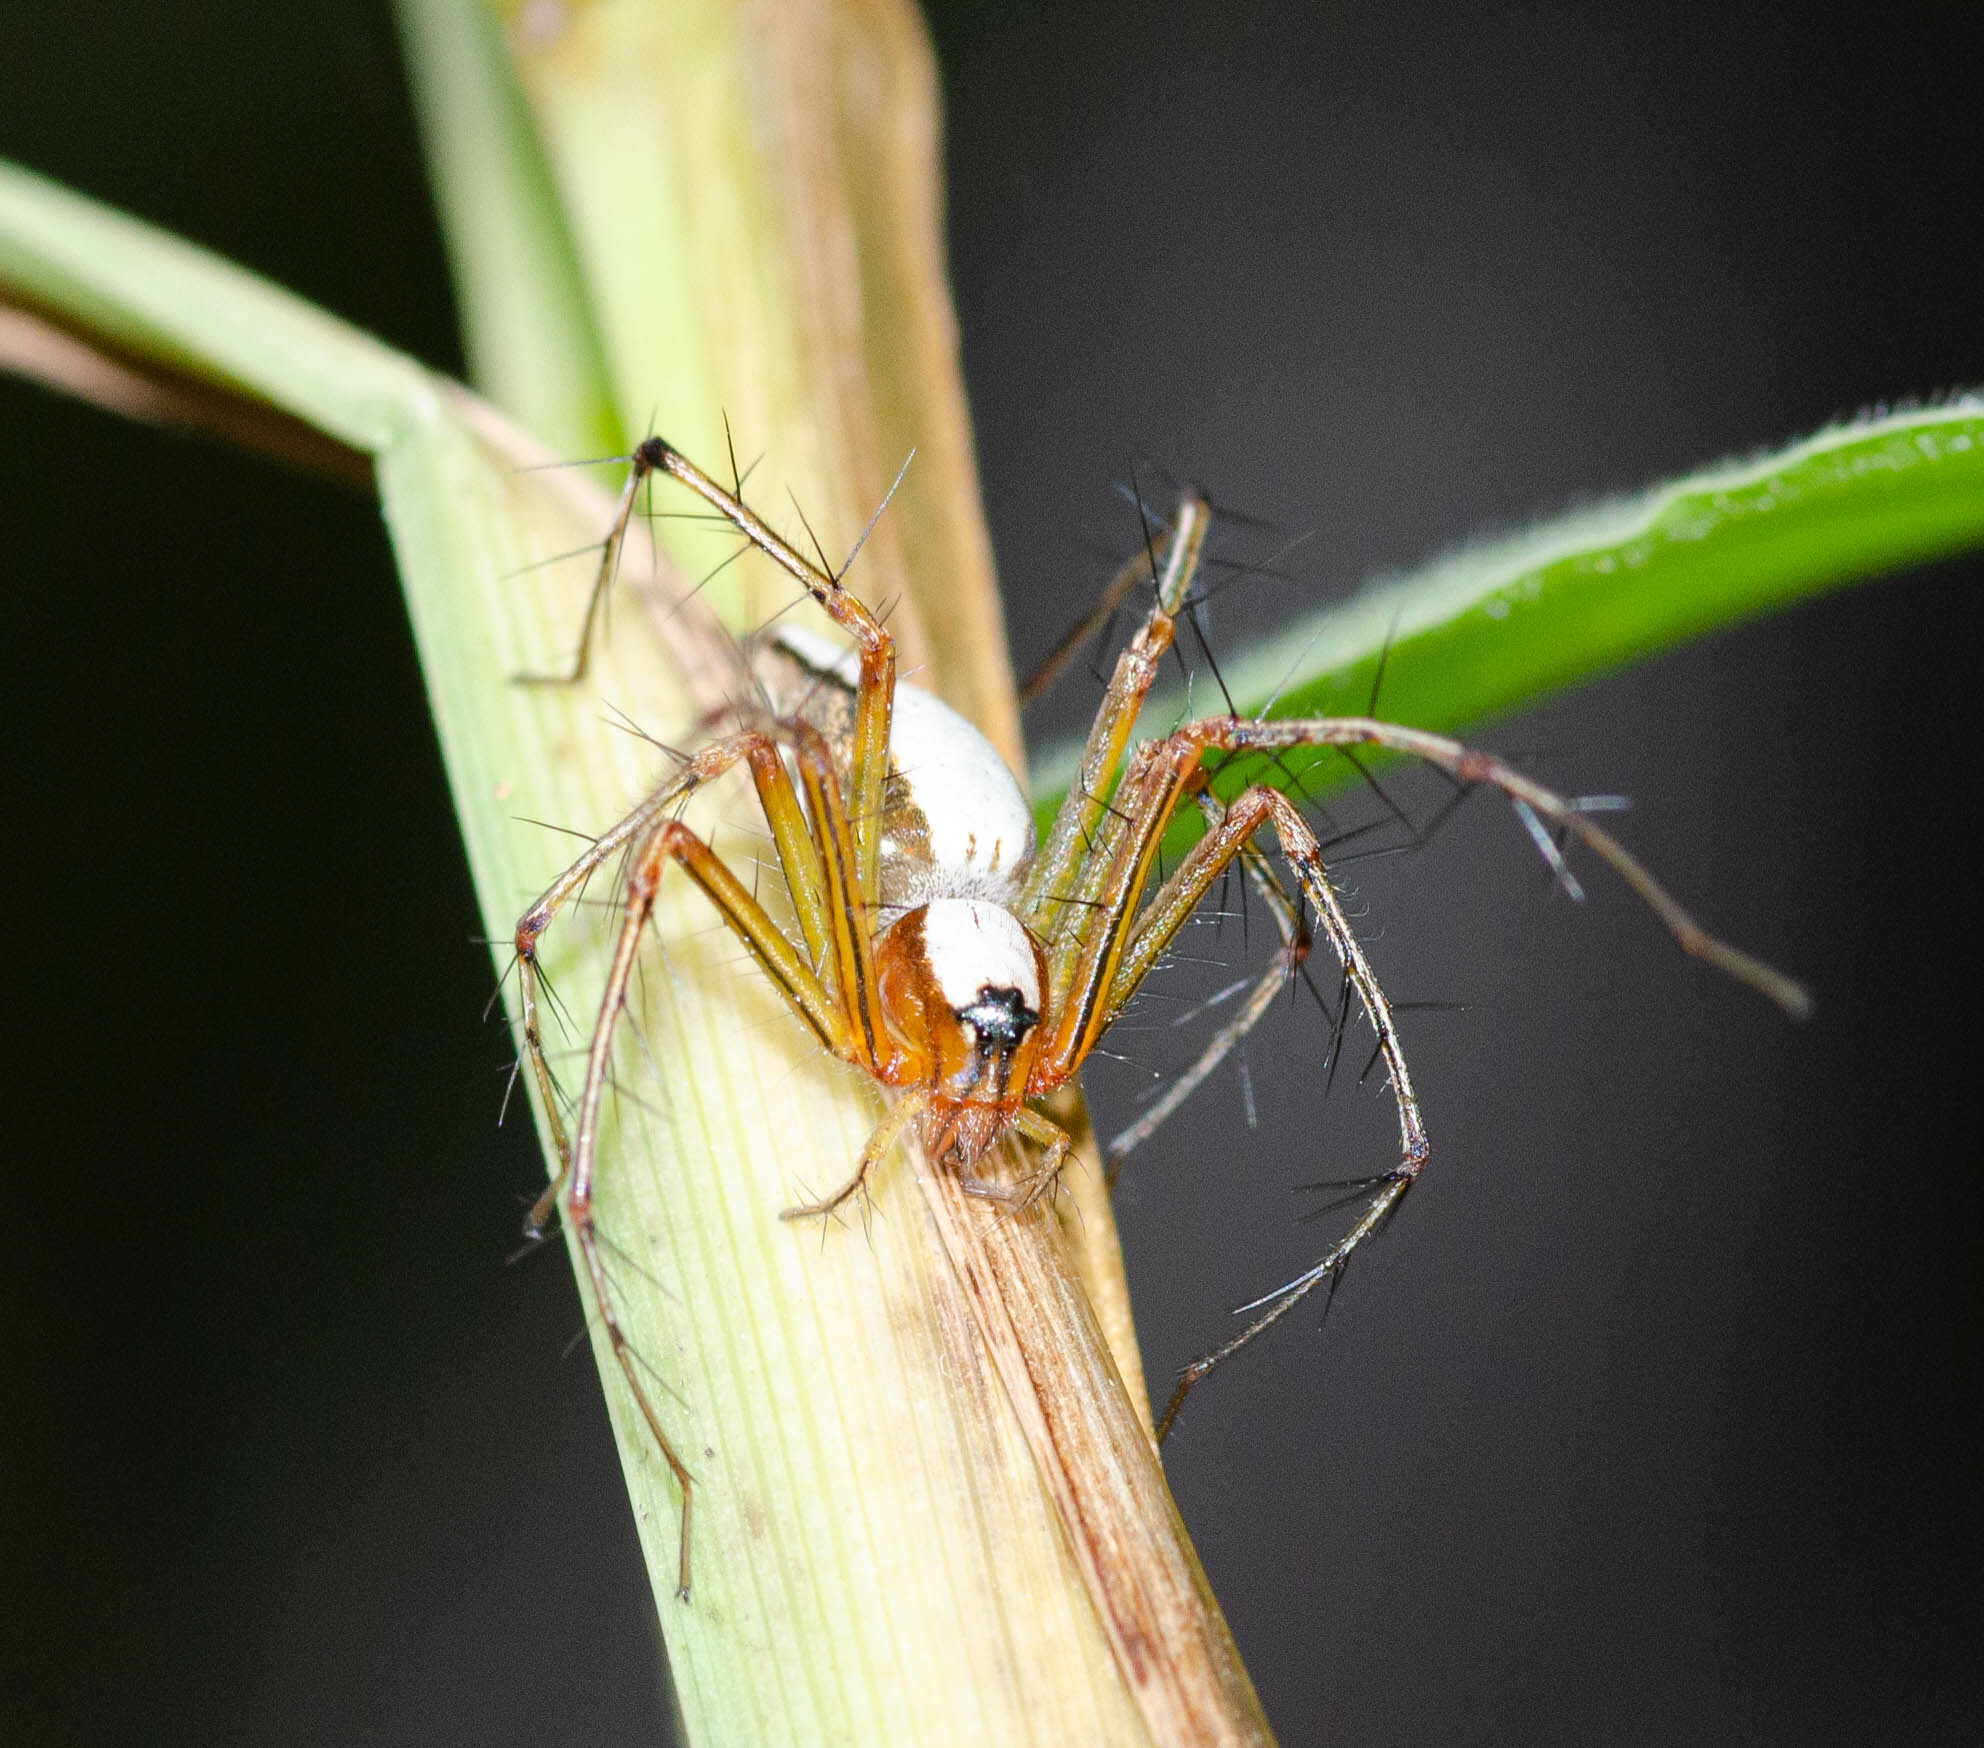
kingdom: Animalia
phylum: Arthropoda
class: Arachnida
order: Araneae
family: Oxyopidae
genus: Oxyopes
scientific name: Oxyopes shweta
